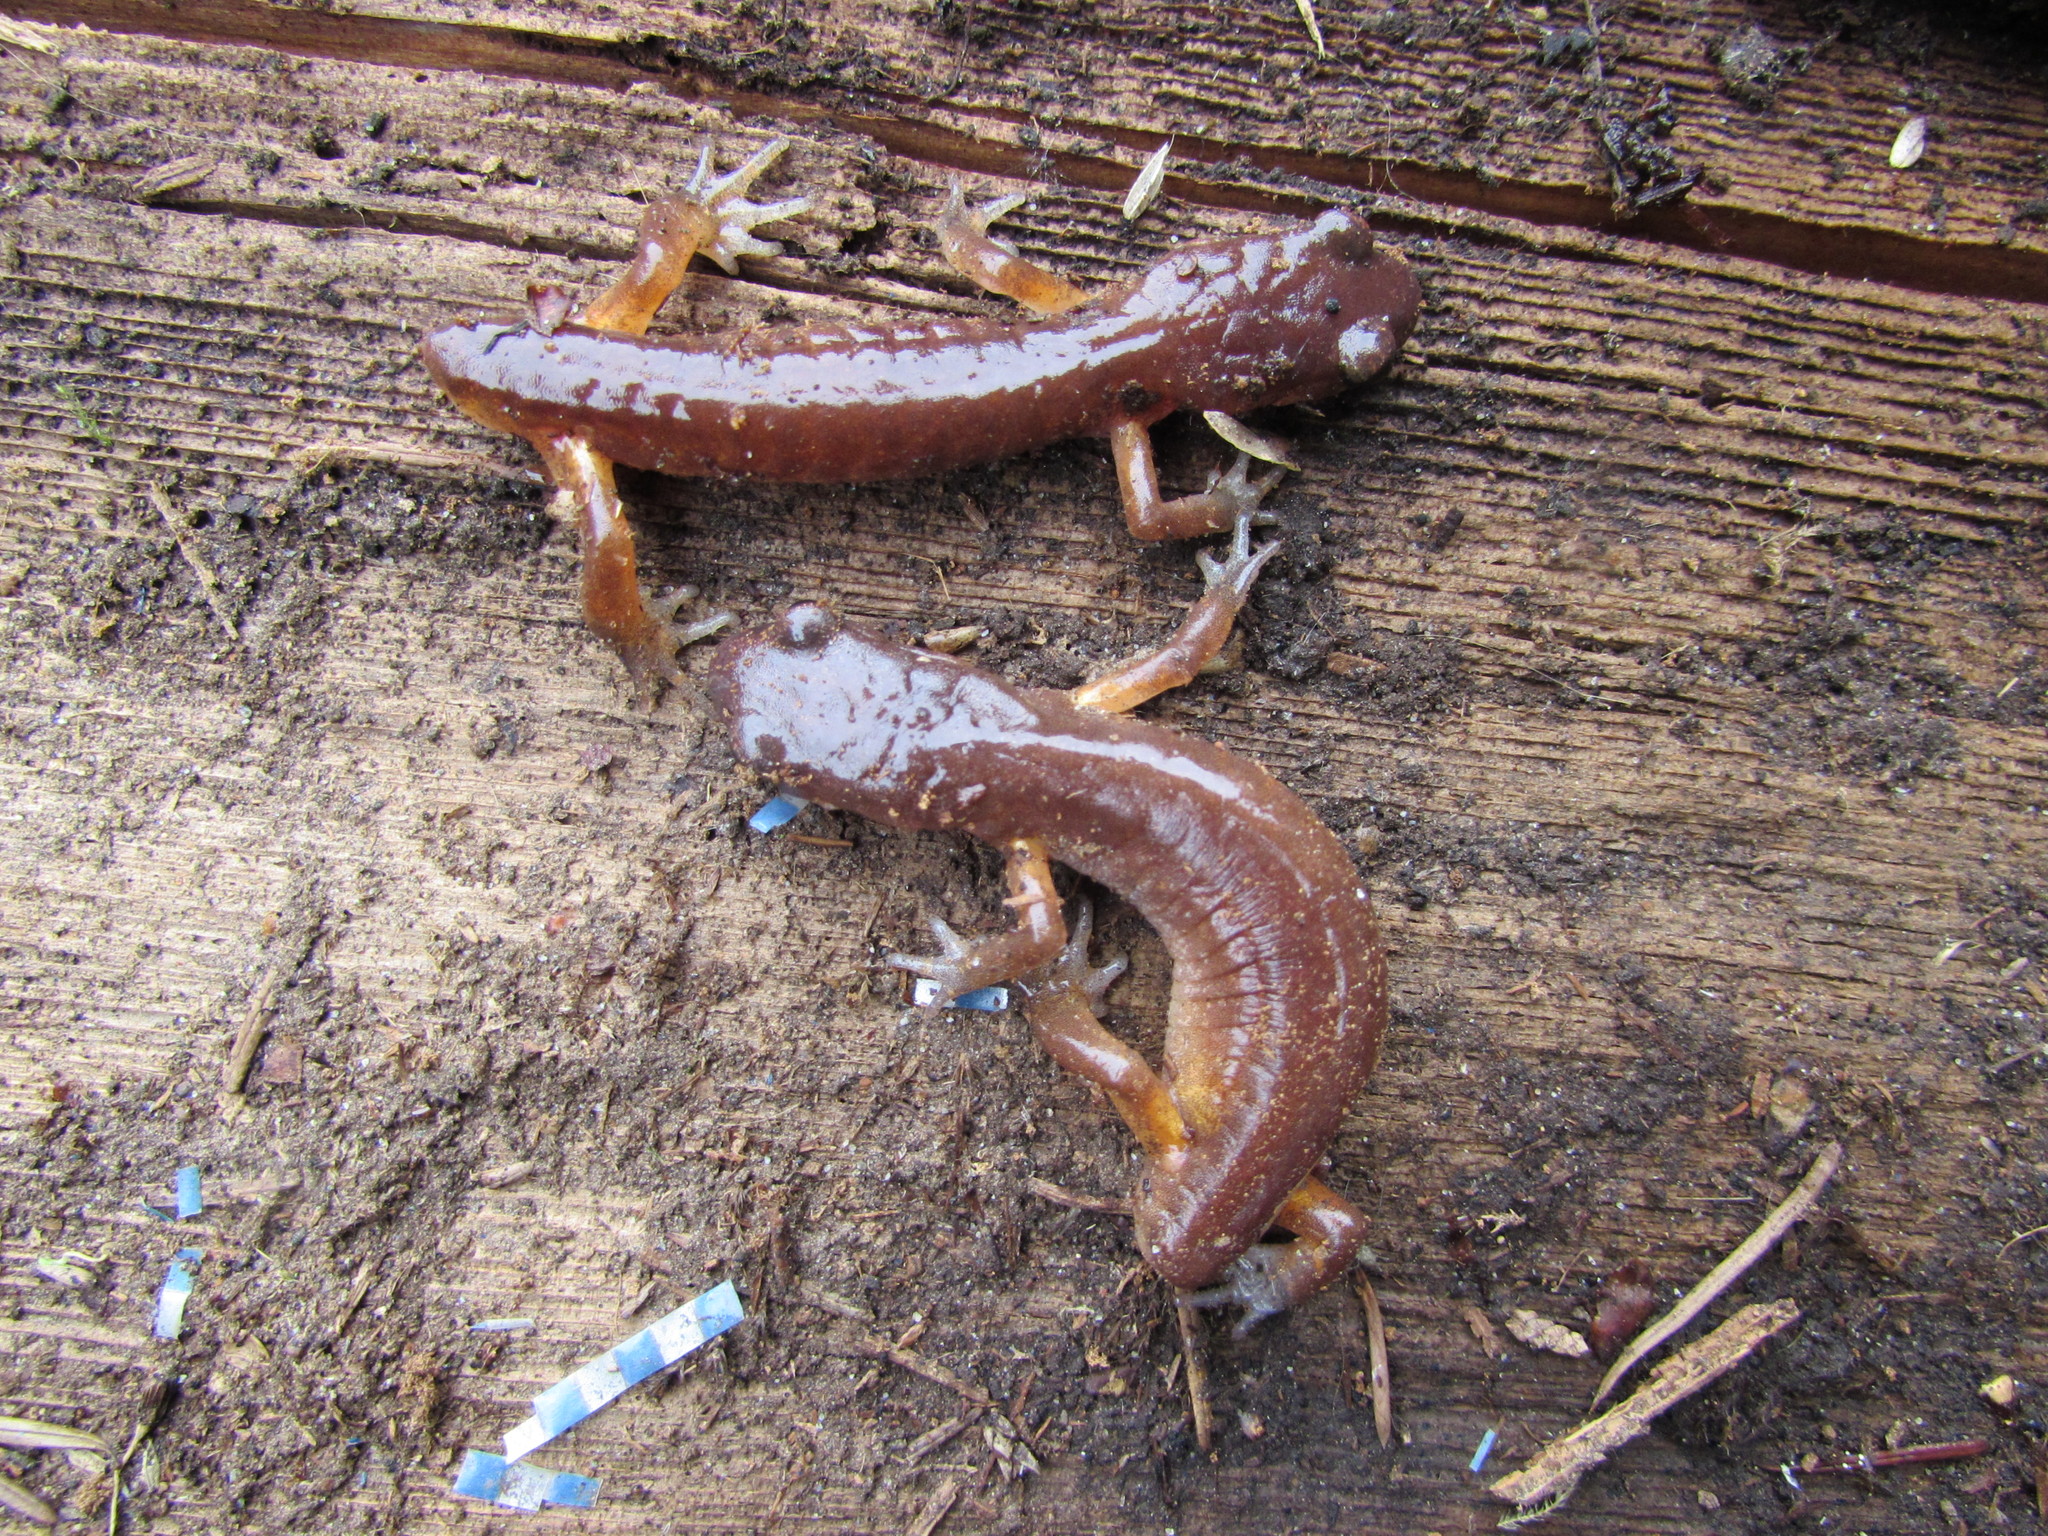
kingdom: Animalia
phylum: Chordata
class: Amphibia
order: Caudata
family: Plethodontidae
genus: Ensatina
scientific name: Ensatina eschscholtzii
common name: Ensatina
